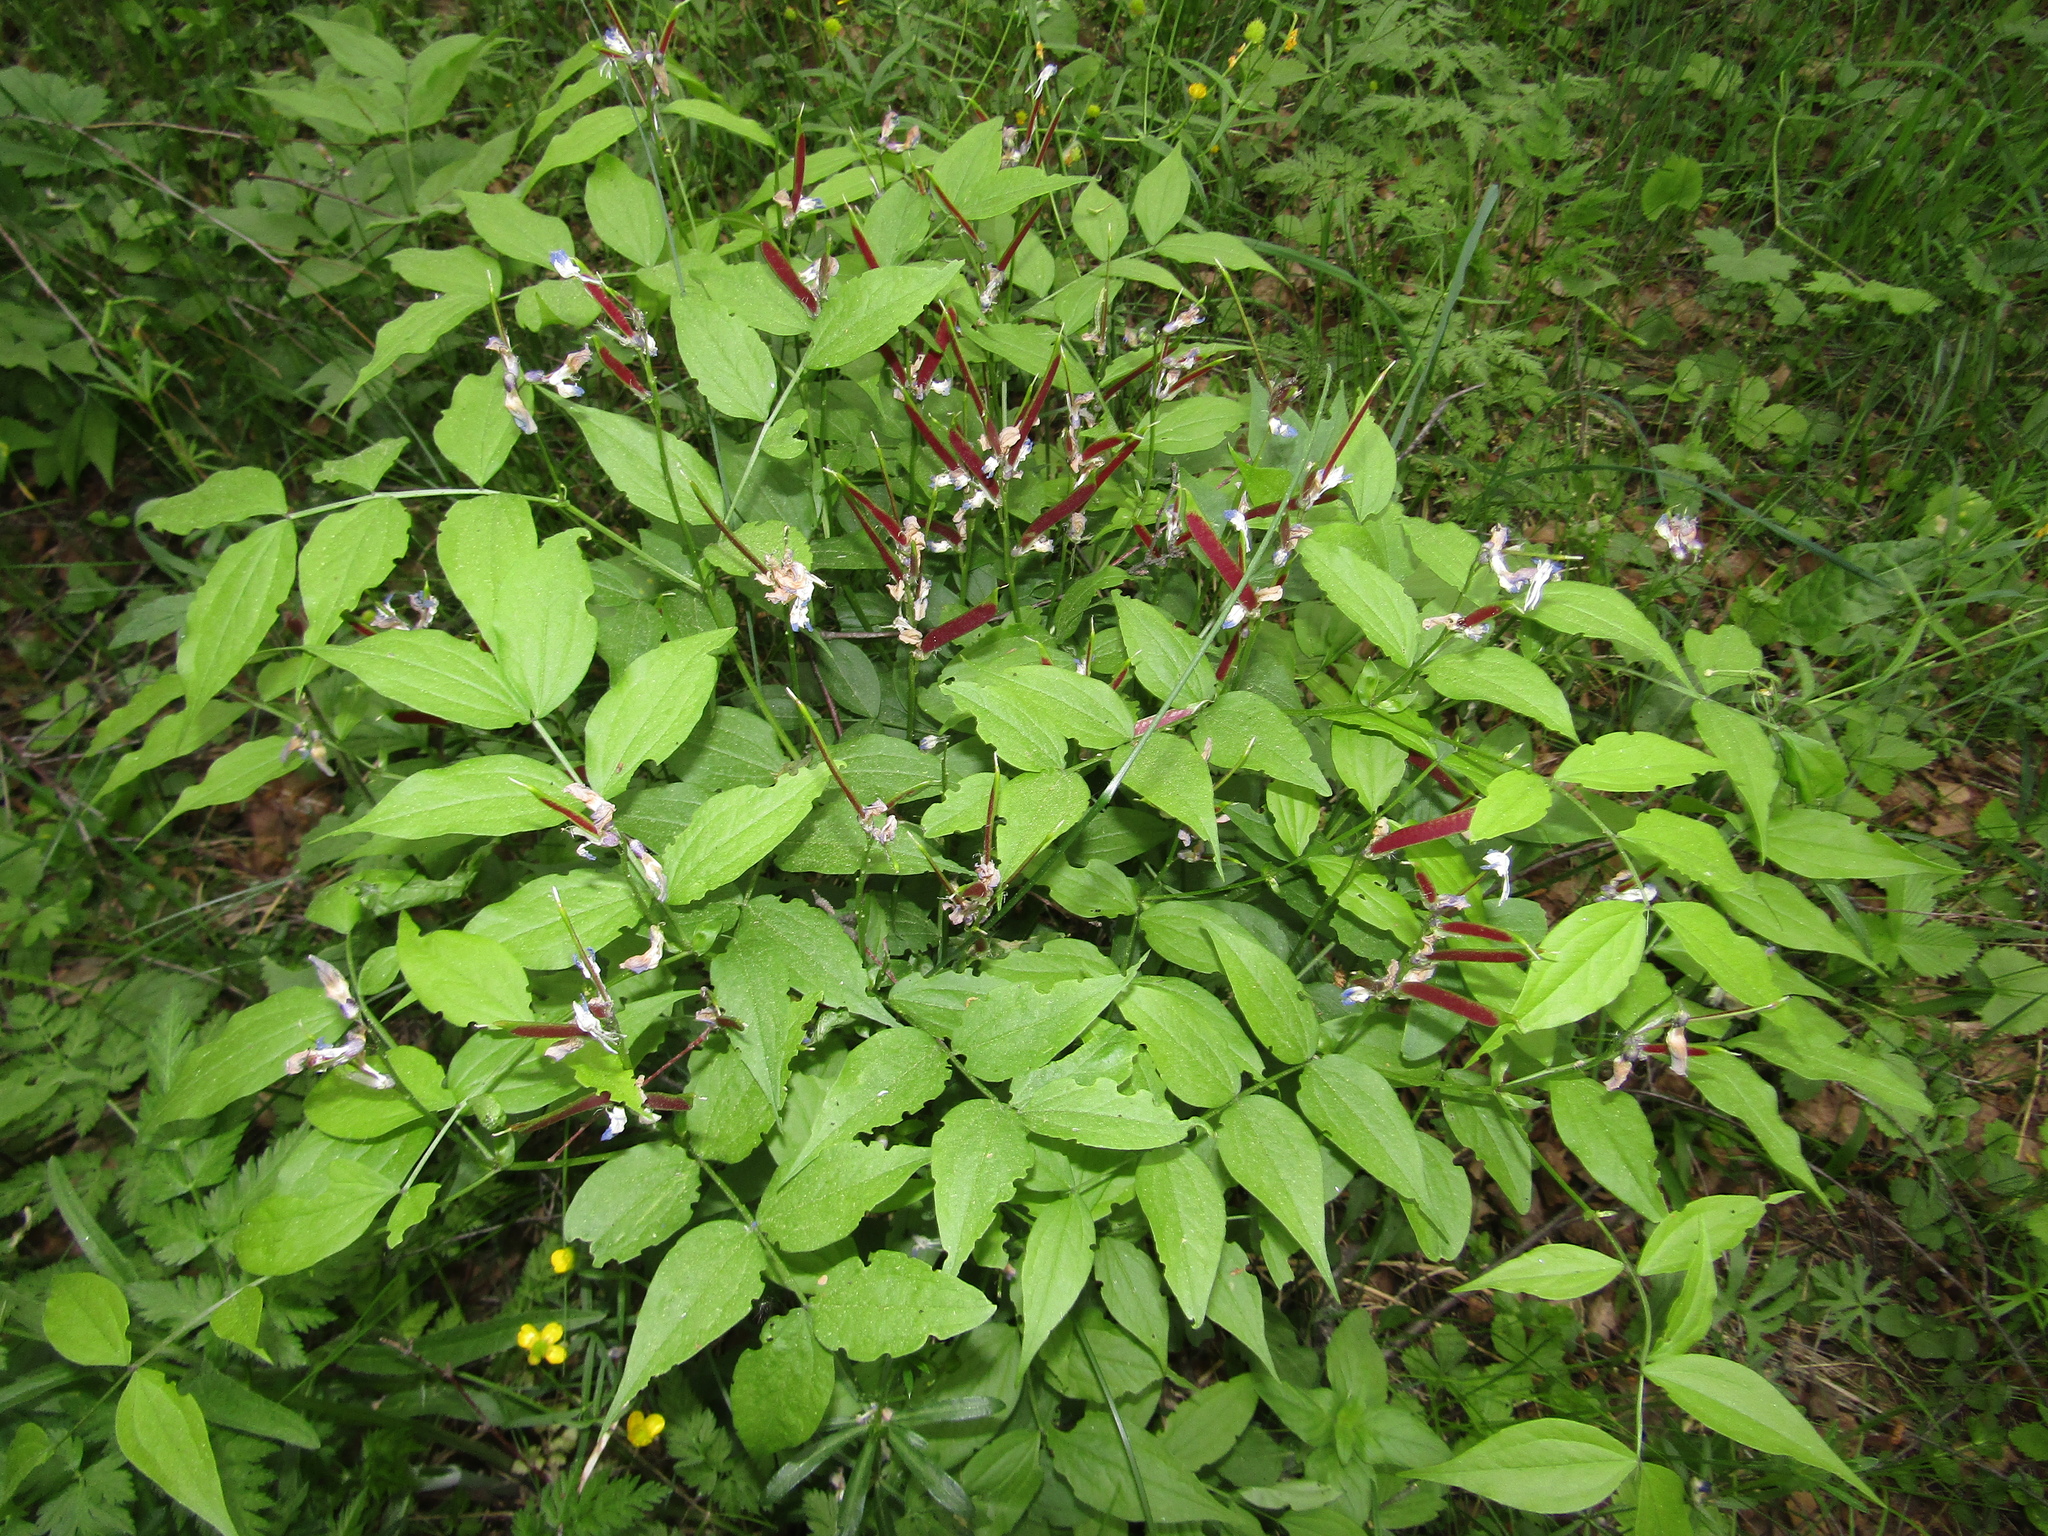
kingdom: Plantae
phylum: Tracheophyta
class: Magnoliopsida
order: Fabales
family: Fabaceae
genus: Lathyrus
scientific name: Lathyrus vernus
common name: Spring pea
